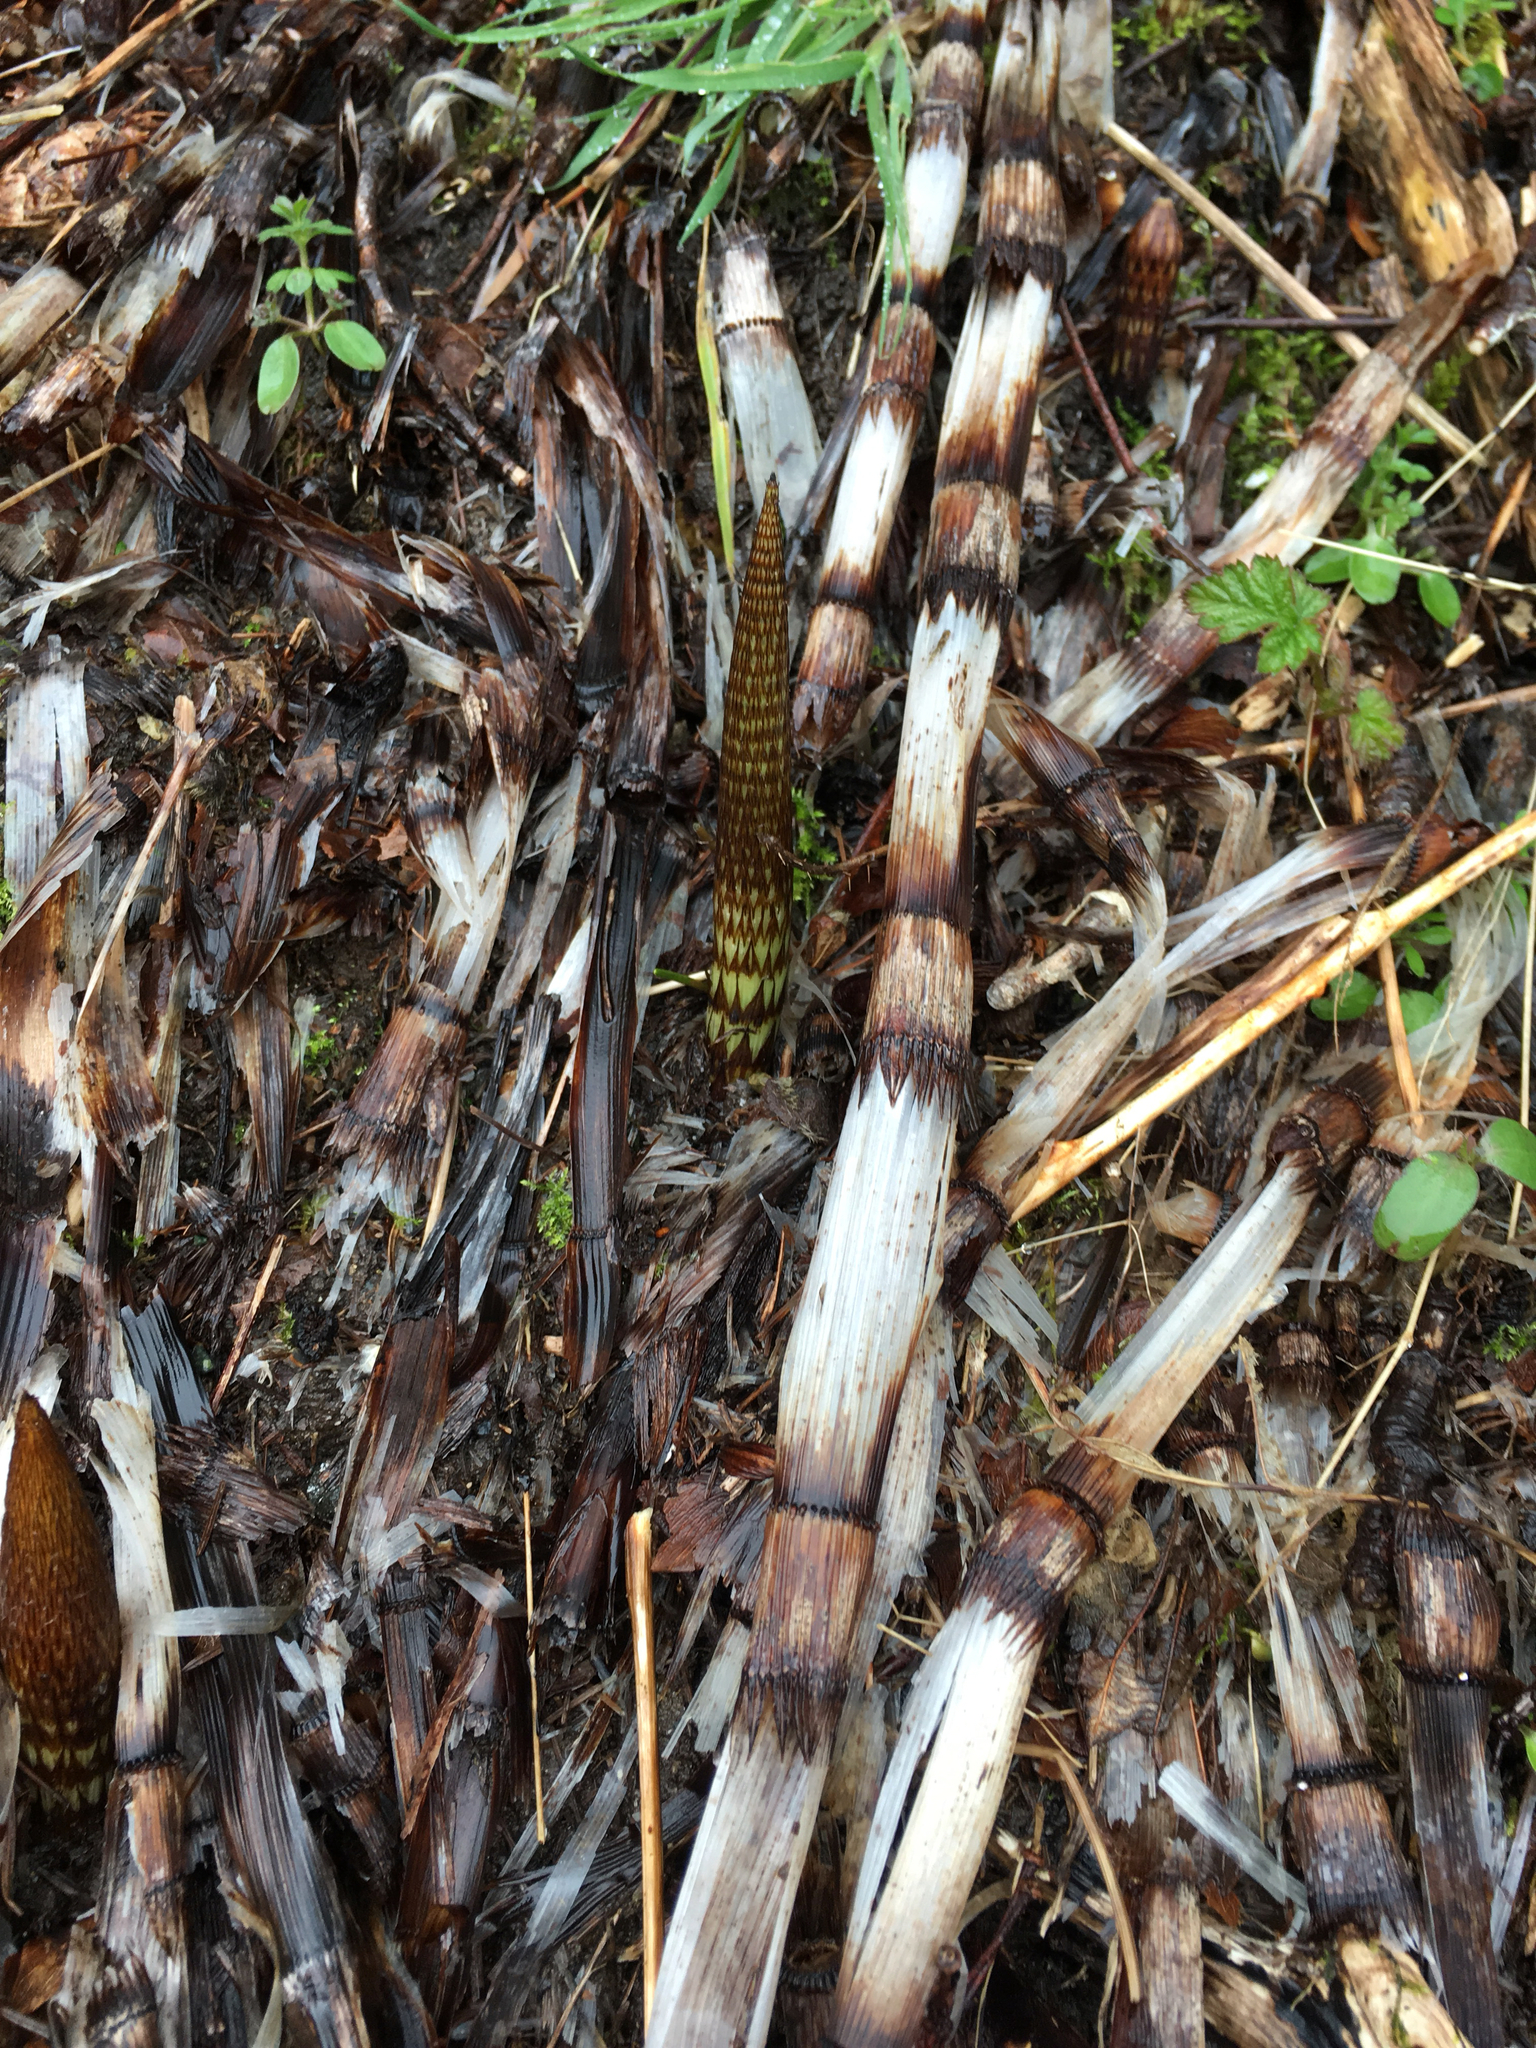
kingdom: Plantae
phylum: Tracheophyta
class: Polypodiopsida
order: Equisetales
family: Equisetaceae
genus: Equisetum
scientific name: Equisetum braunii
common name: Braun's horsetail
